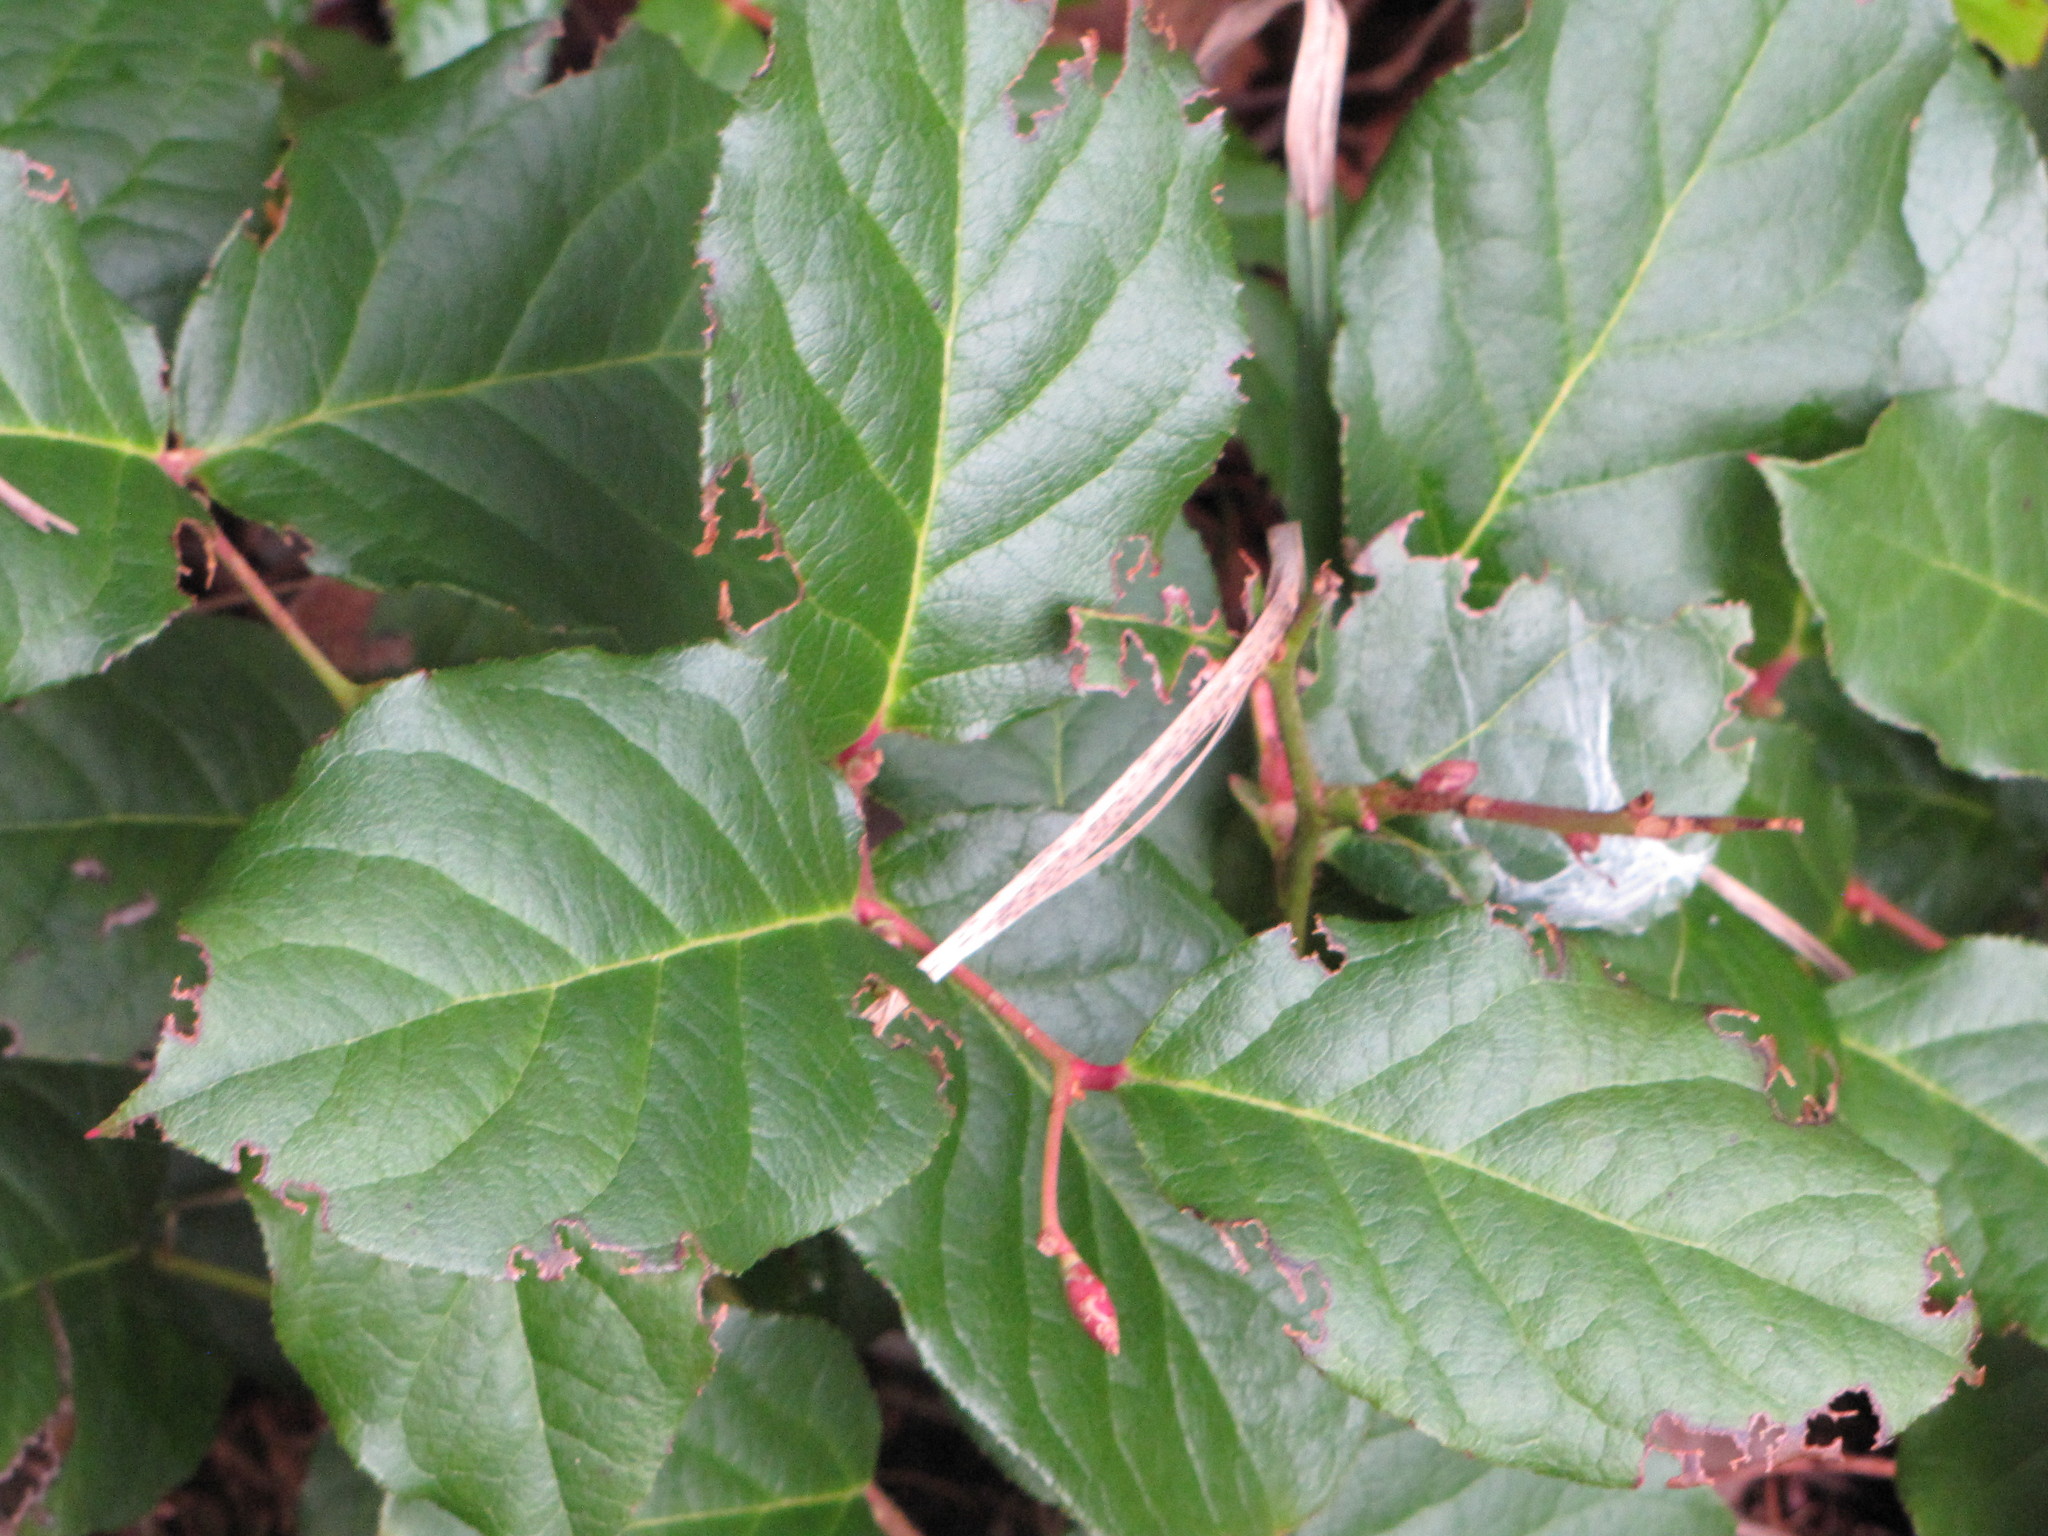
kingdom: Plantae
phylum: Tracheophyta
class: Magnoliopsida
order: Ericales
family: Ericaceae
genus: Gaultheria
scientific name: Gaultheria shallon
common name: Shallon
